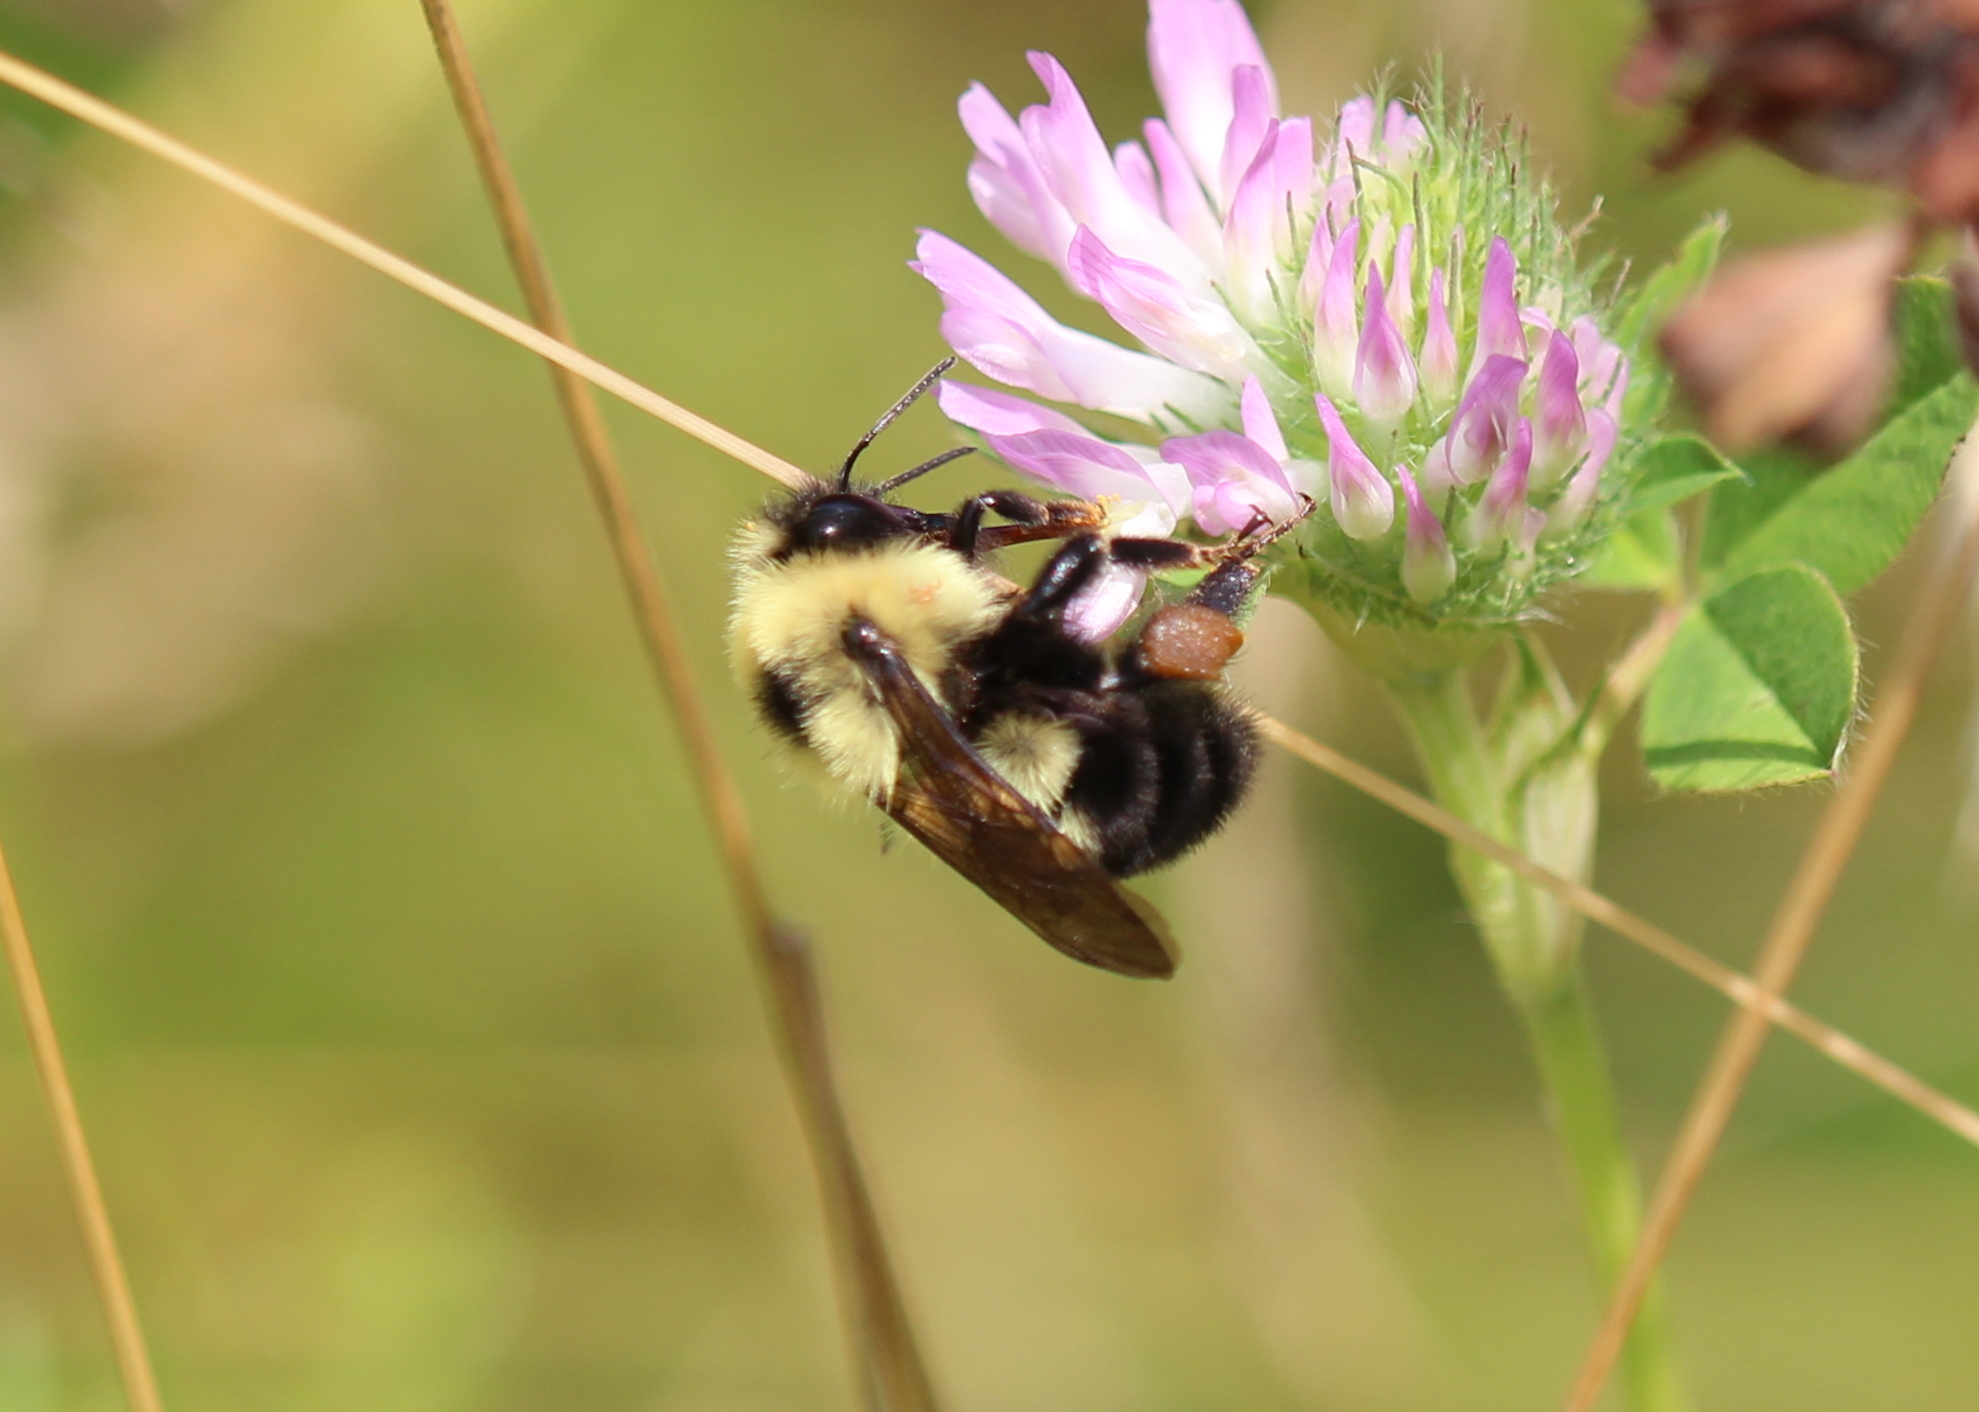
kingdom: Animalia
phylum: Arthropoda
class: Insecta
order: Hymenoptera
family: Apidae
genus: Bombus
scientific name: Bombus bimaculatus
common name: Two-spotted bumble bee
